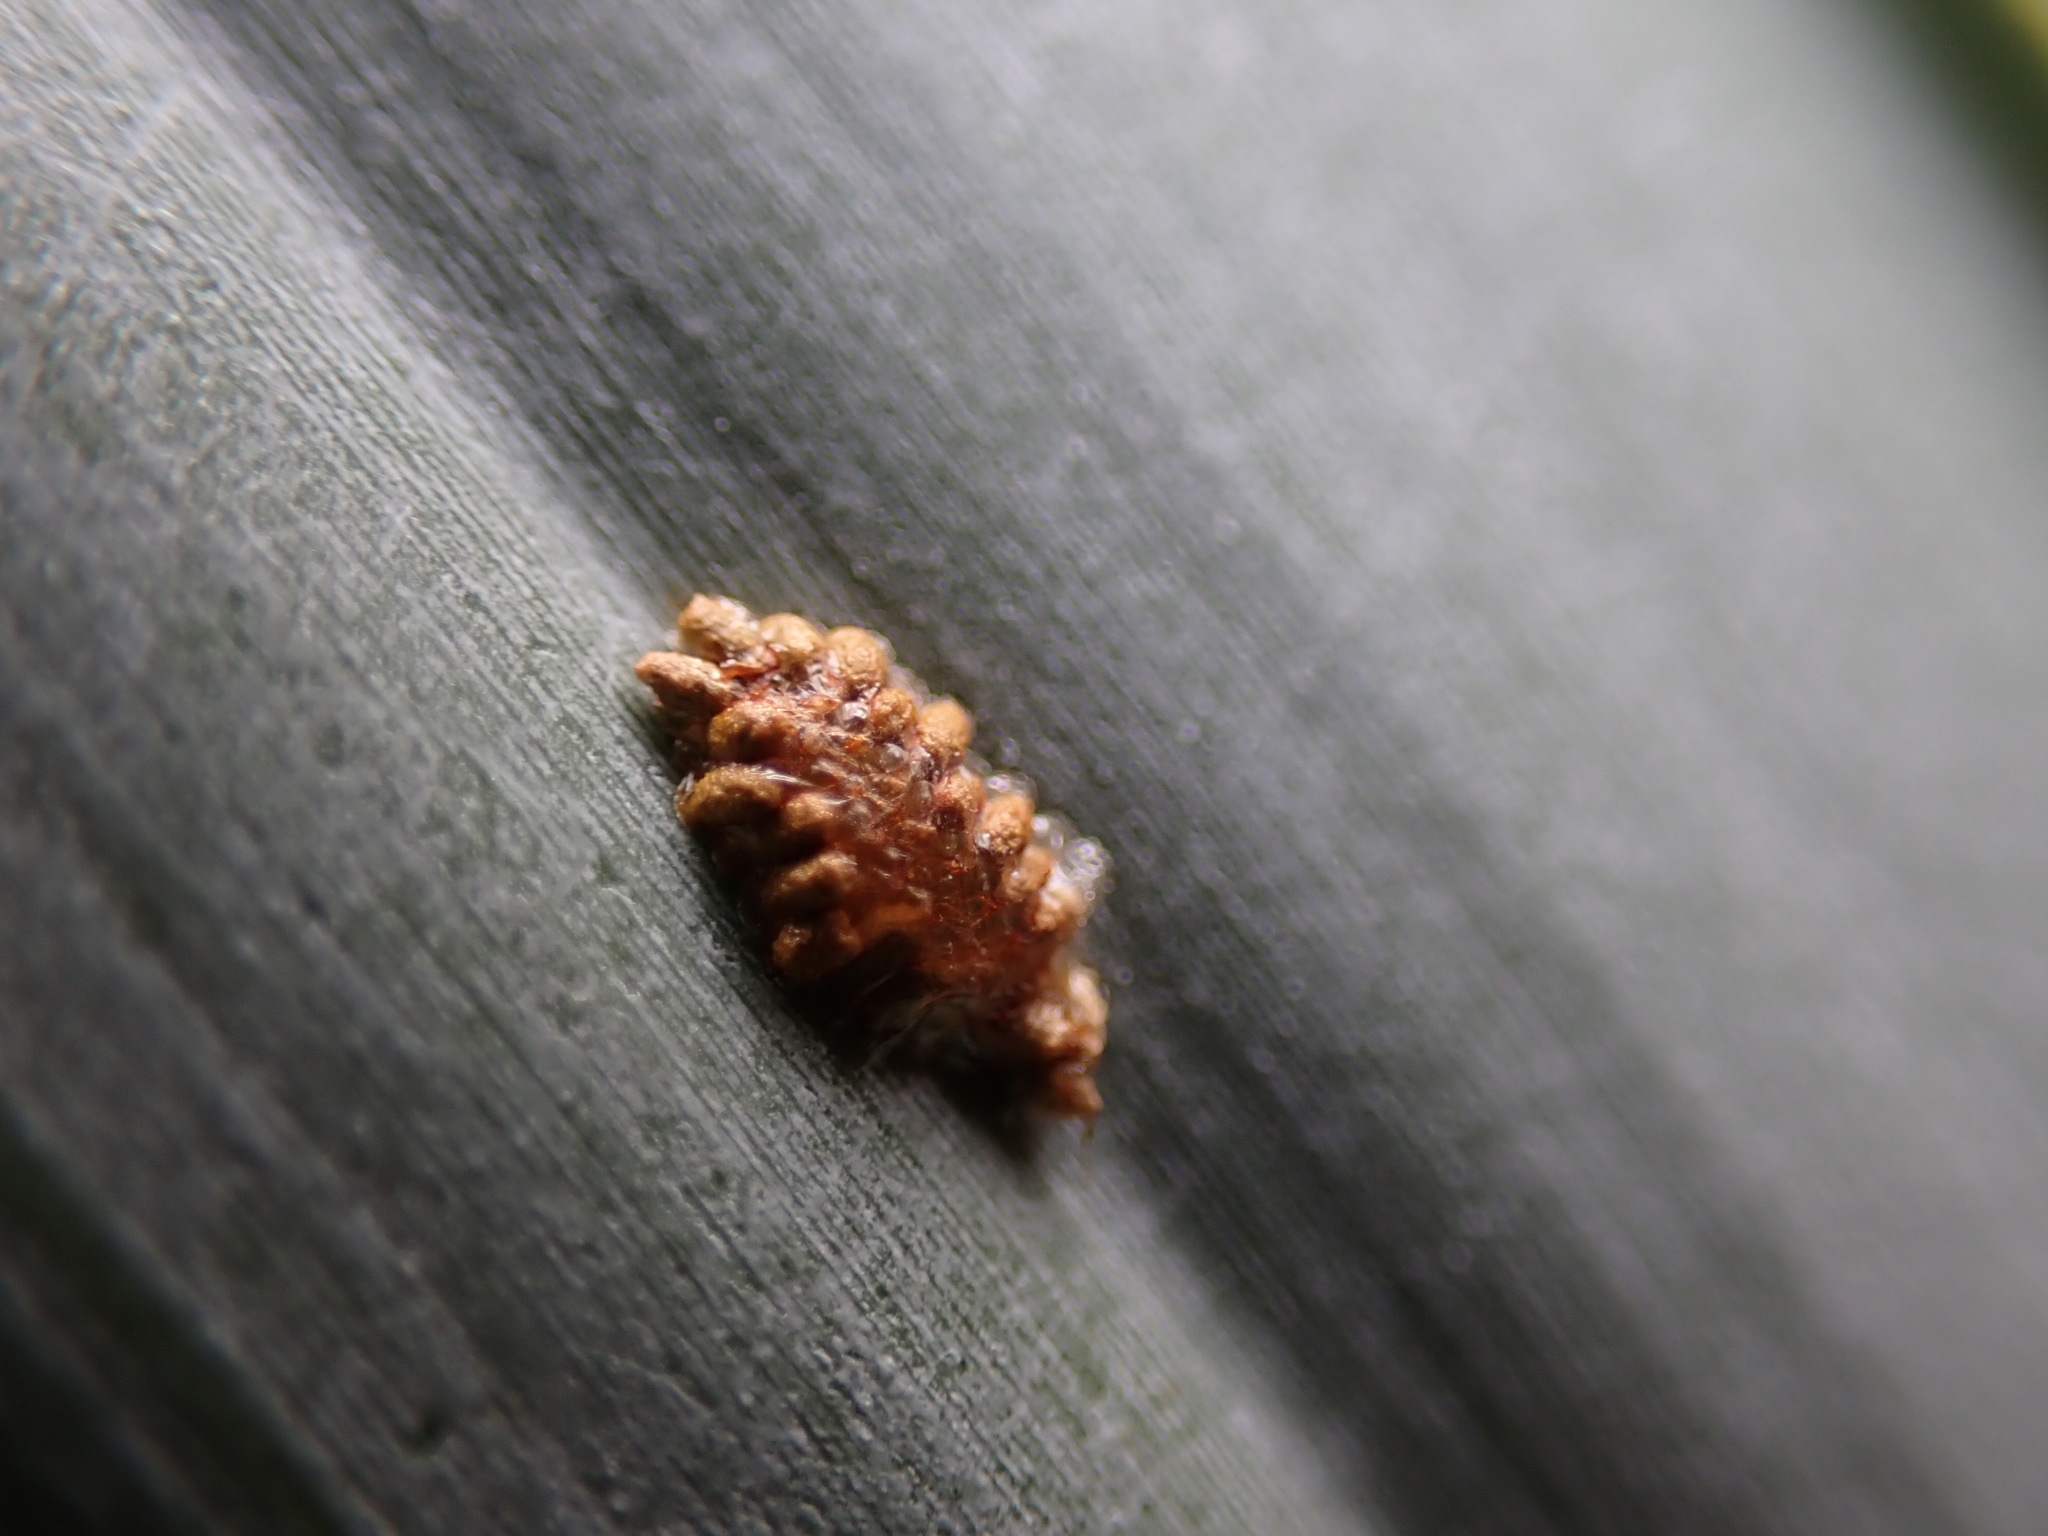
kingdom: Animalia
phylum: Arthropoda
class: Insecta
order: Coleoptera
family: Chrysomelidae
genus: Hemisphaerota
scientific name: Hemisphaerota cyanea
